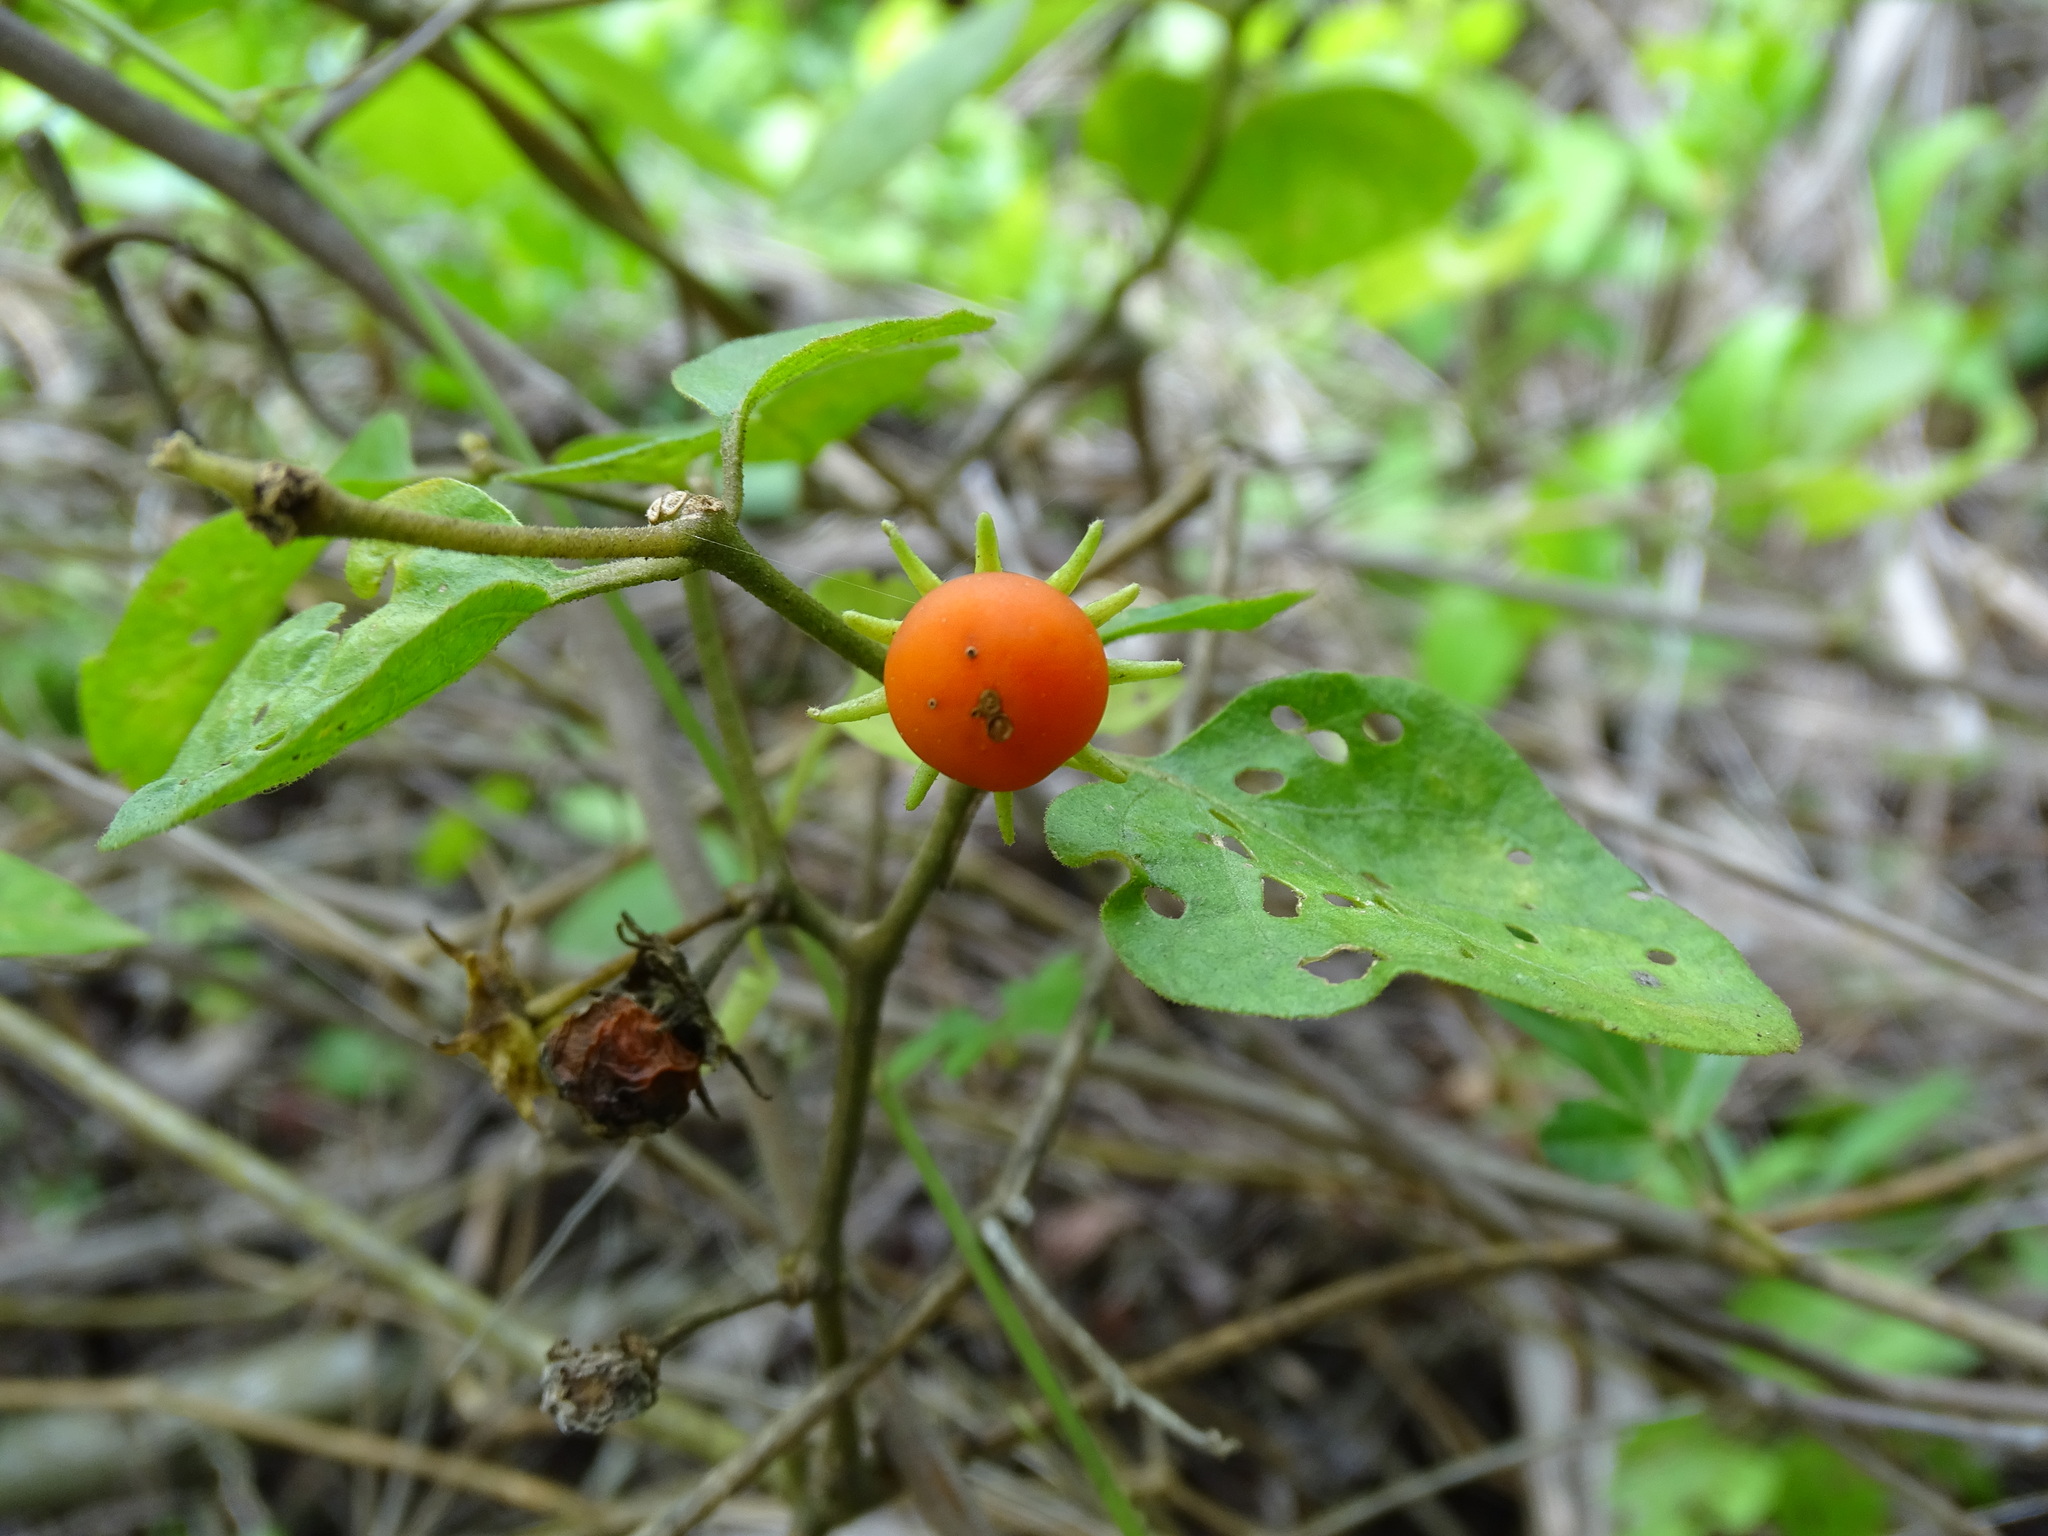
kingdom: Plantae
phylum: Tracheophyta
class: Magnoliopsida
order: Solanales
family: Solanaceae
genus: Lycianthes
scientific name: Lycianthes scandens
